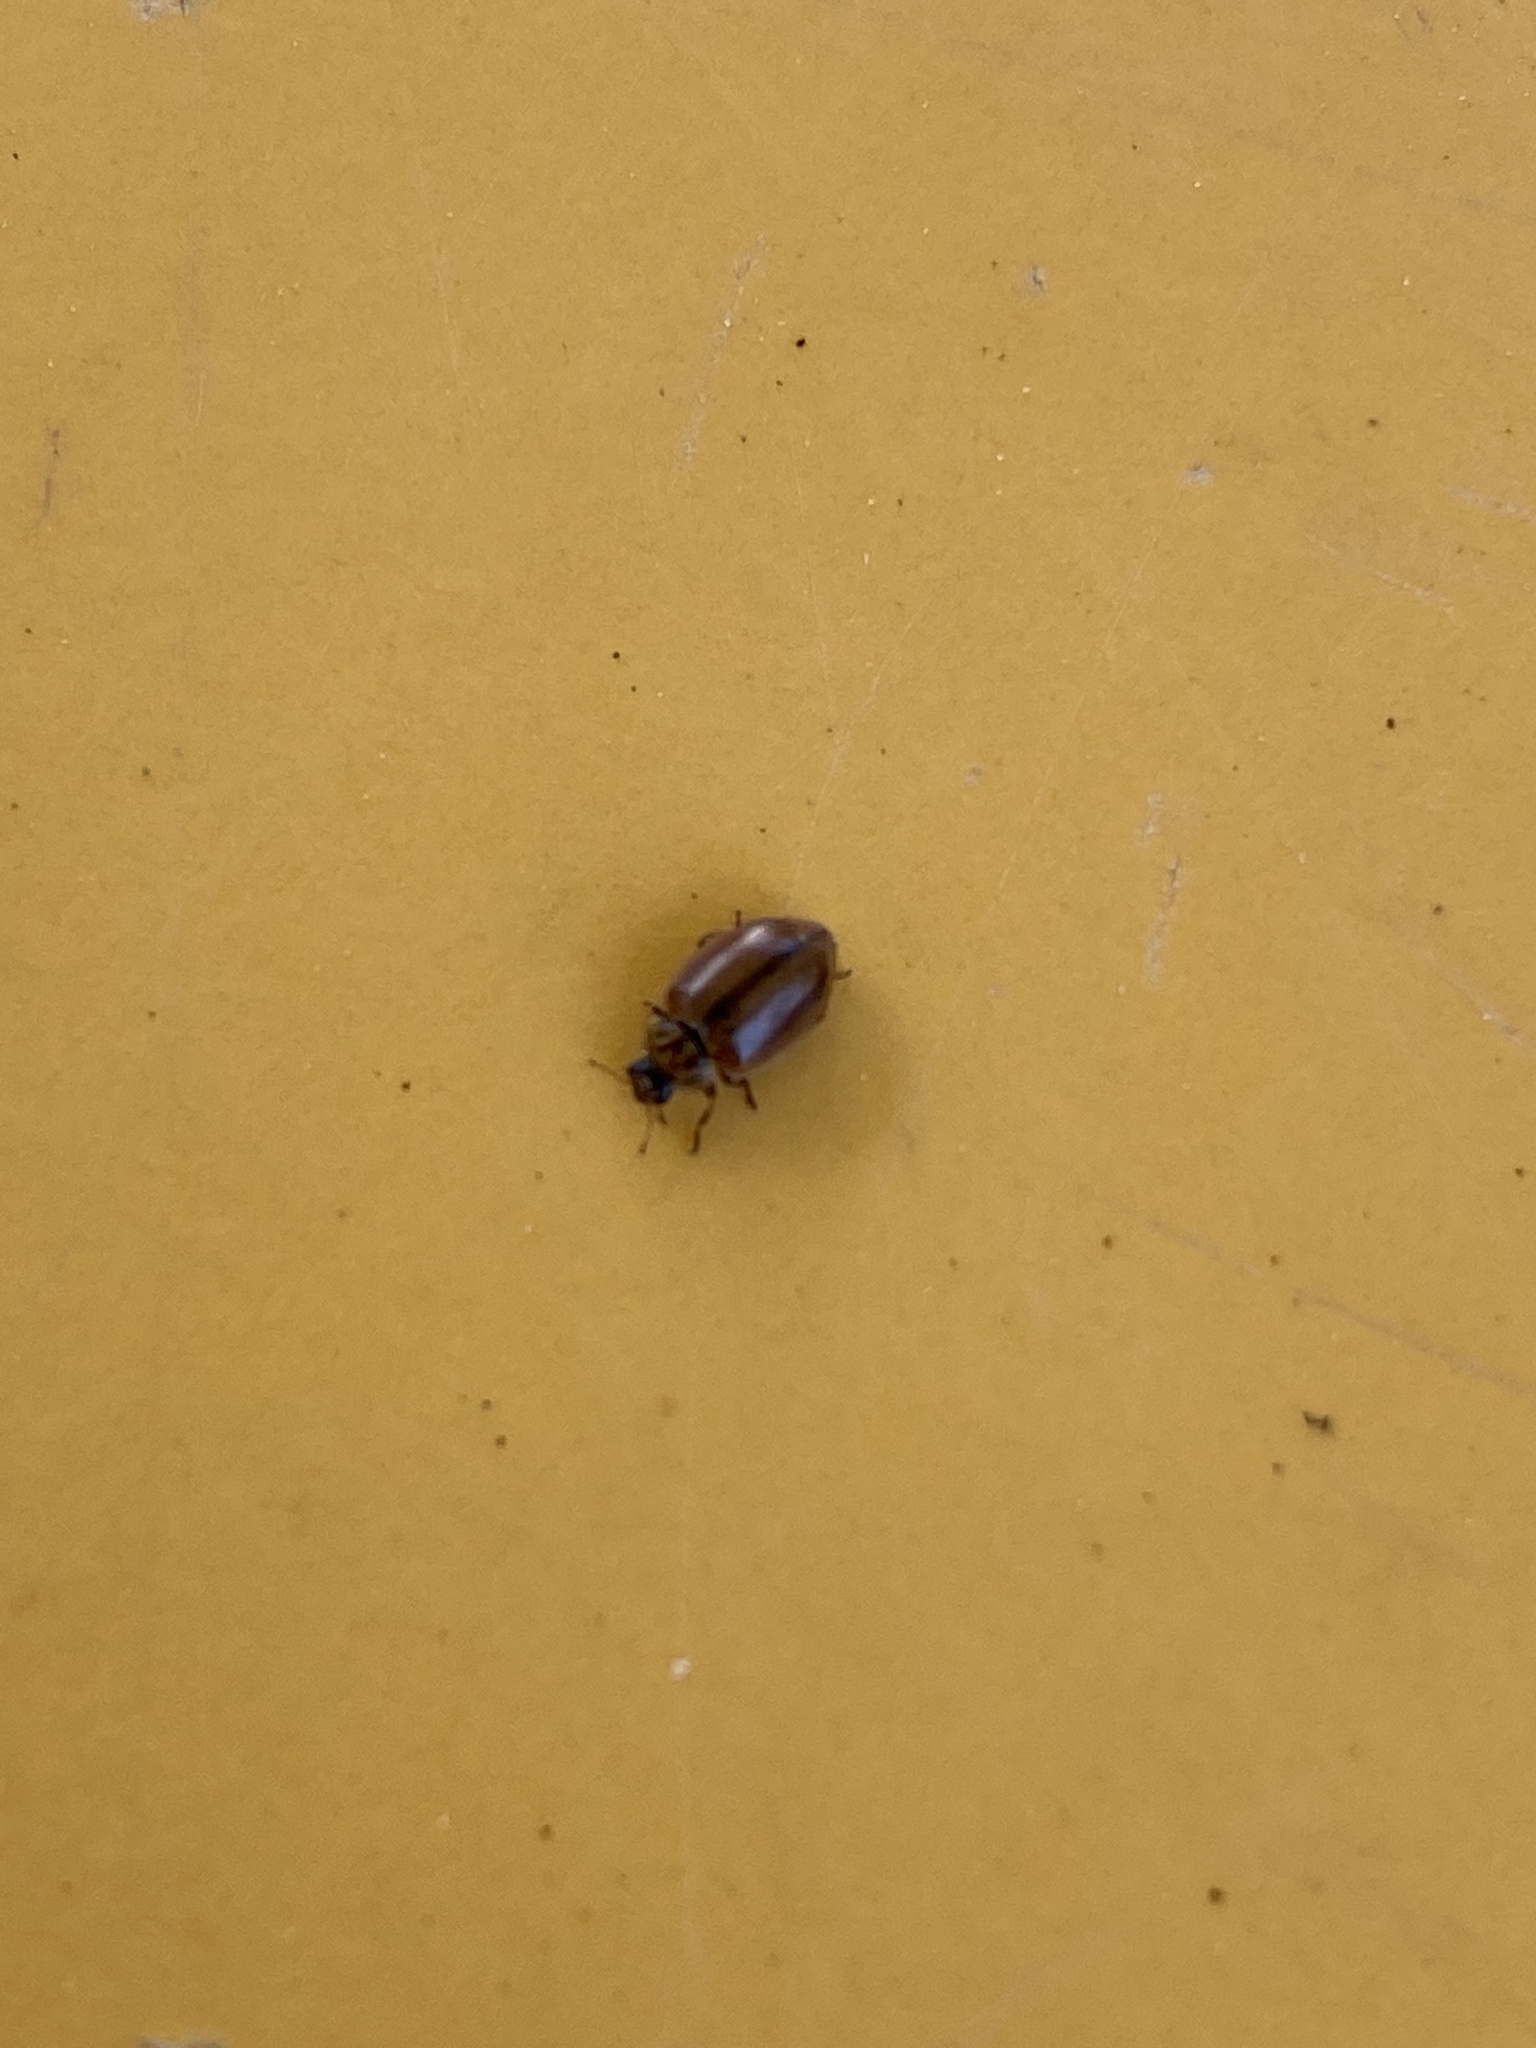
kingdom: Animalia
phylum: Arthropoda
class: Insecta
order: Coleoptera
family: Coccinellidae
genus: Aphidecta
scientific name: Aphidecta obliterata
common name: Larch ladybird
